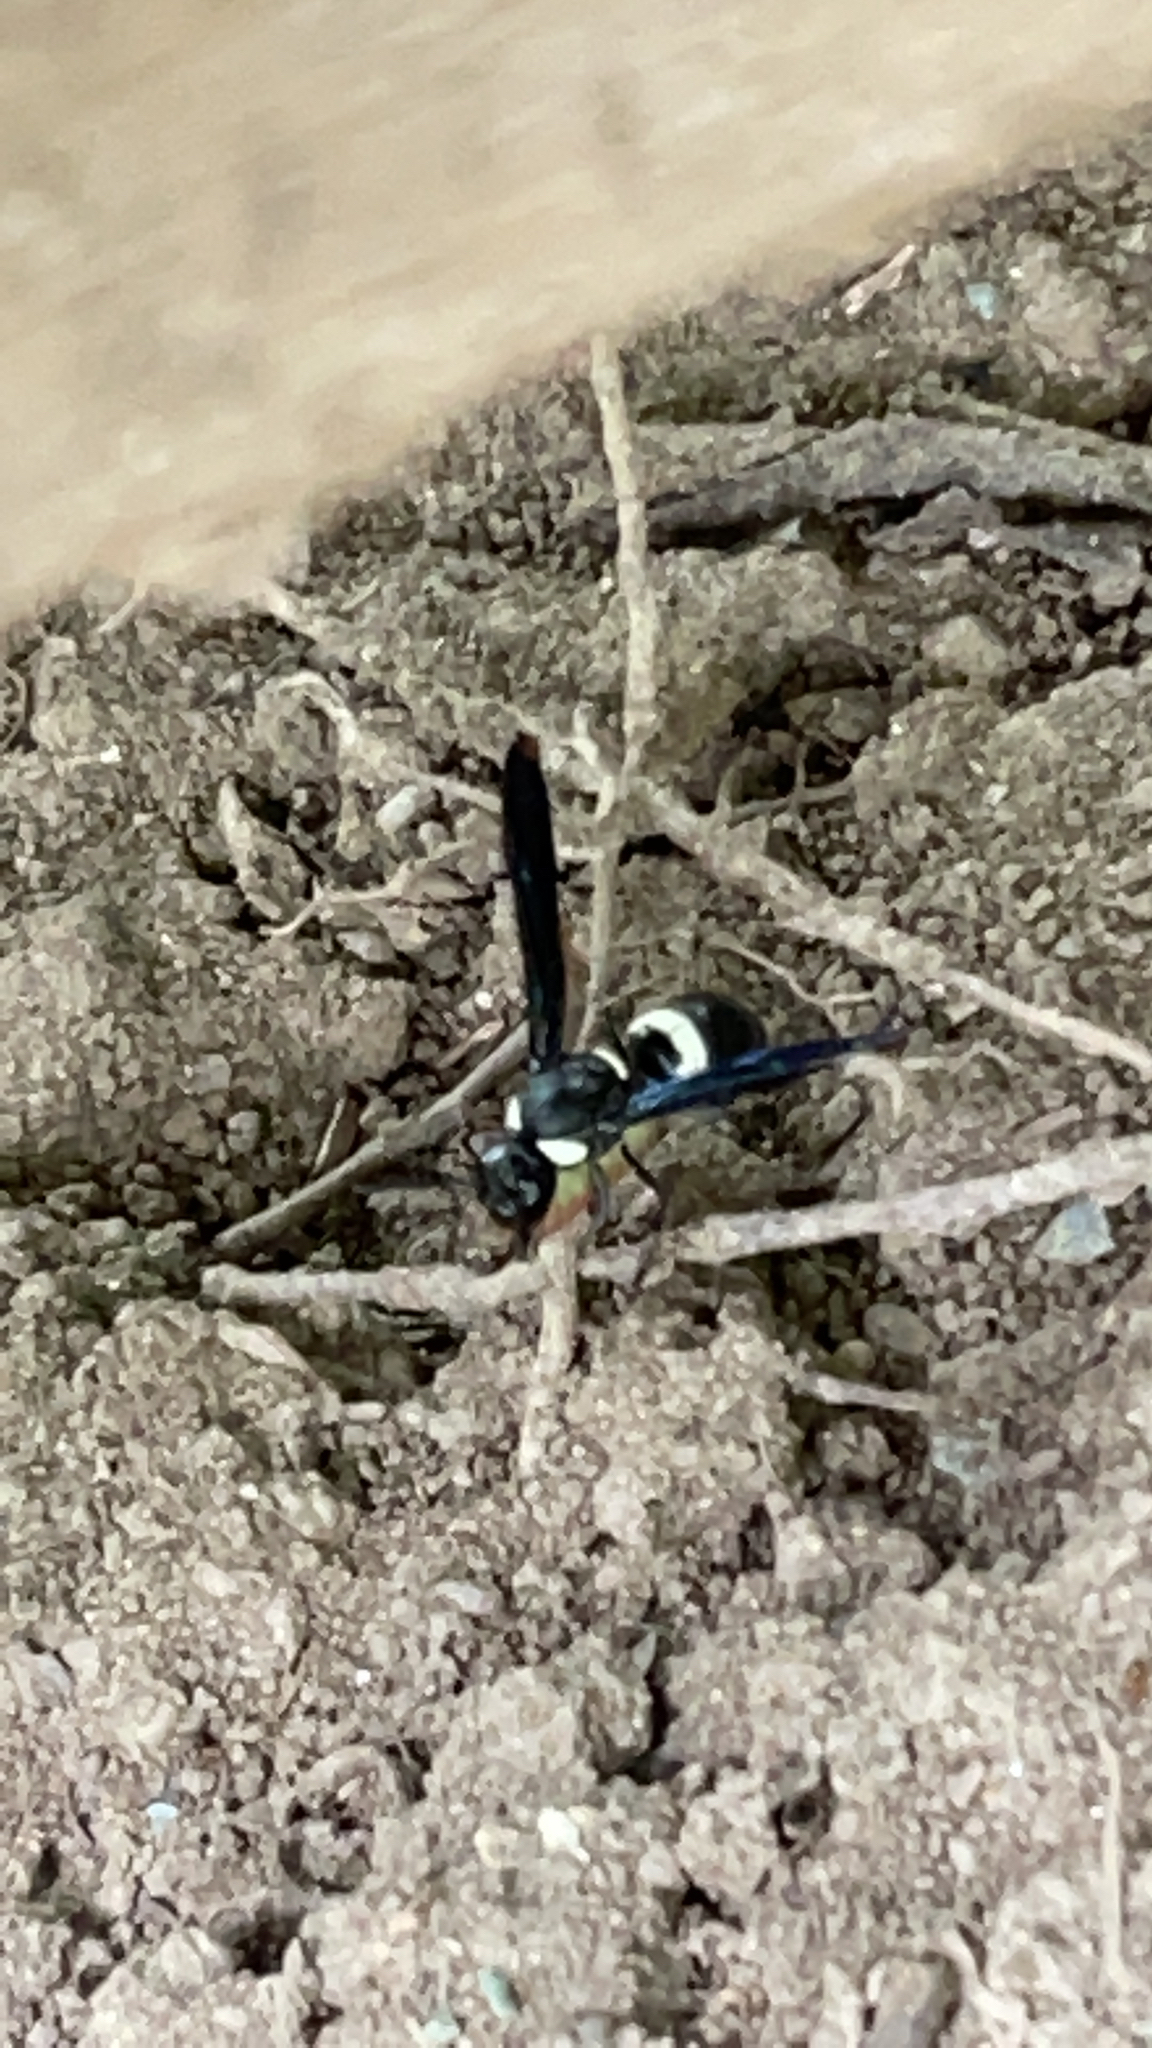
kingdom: Animalia
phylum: Arthropoda
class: Insecta
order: Hymenoptera
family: Eumenidae
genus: Monobia
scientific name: Monobia quadridens
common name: Four-toothed mason wasp
